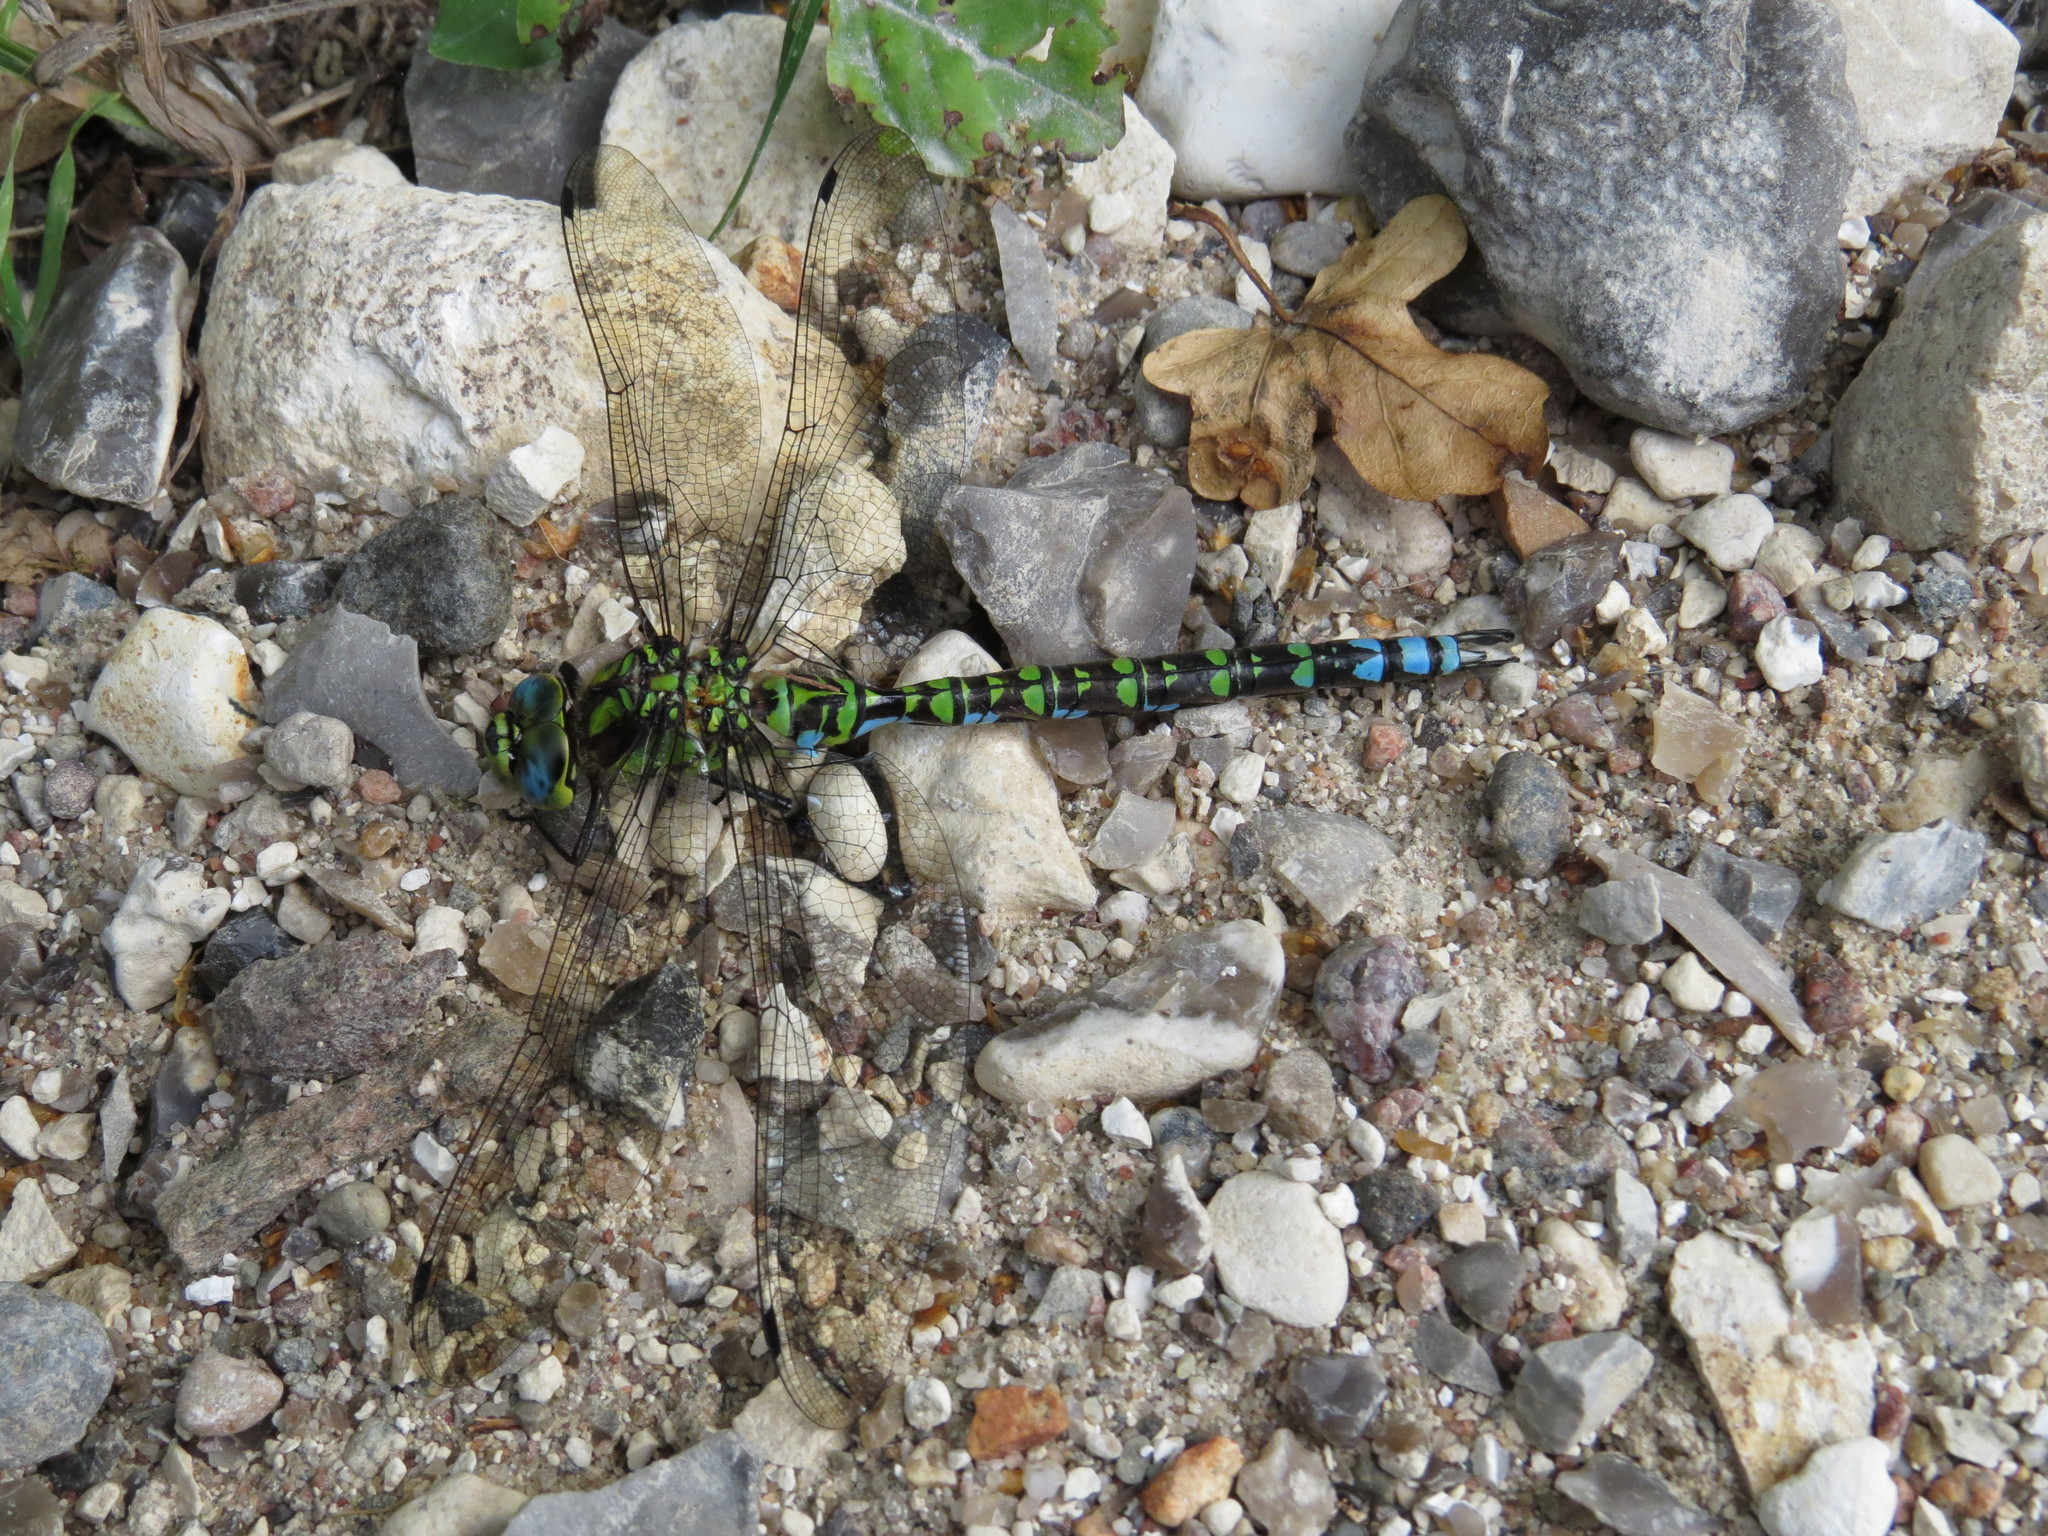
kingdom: Animalia
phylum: Arthropoda
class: Insecta
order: Odonata
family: Aeshnidae
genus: Aeshna
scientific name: Aeshna cyanea
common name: Southern hawker
